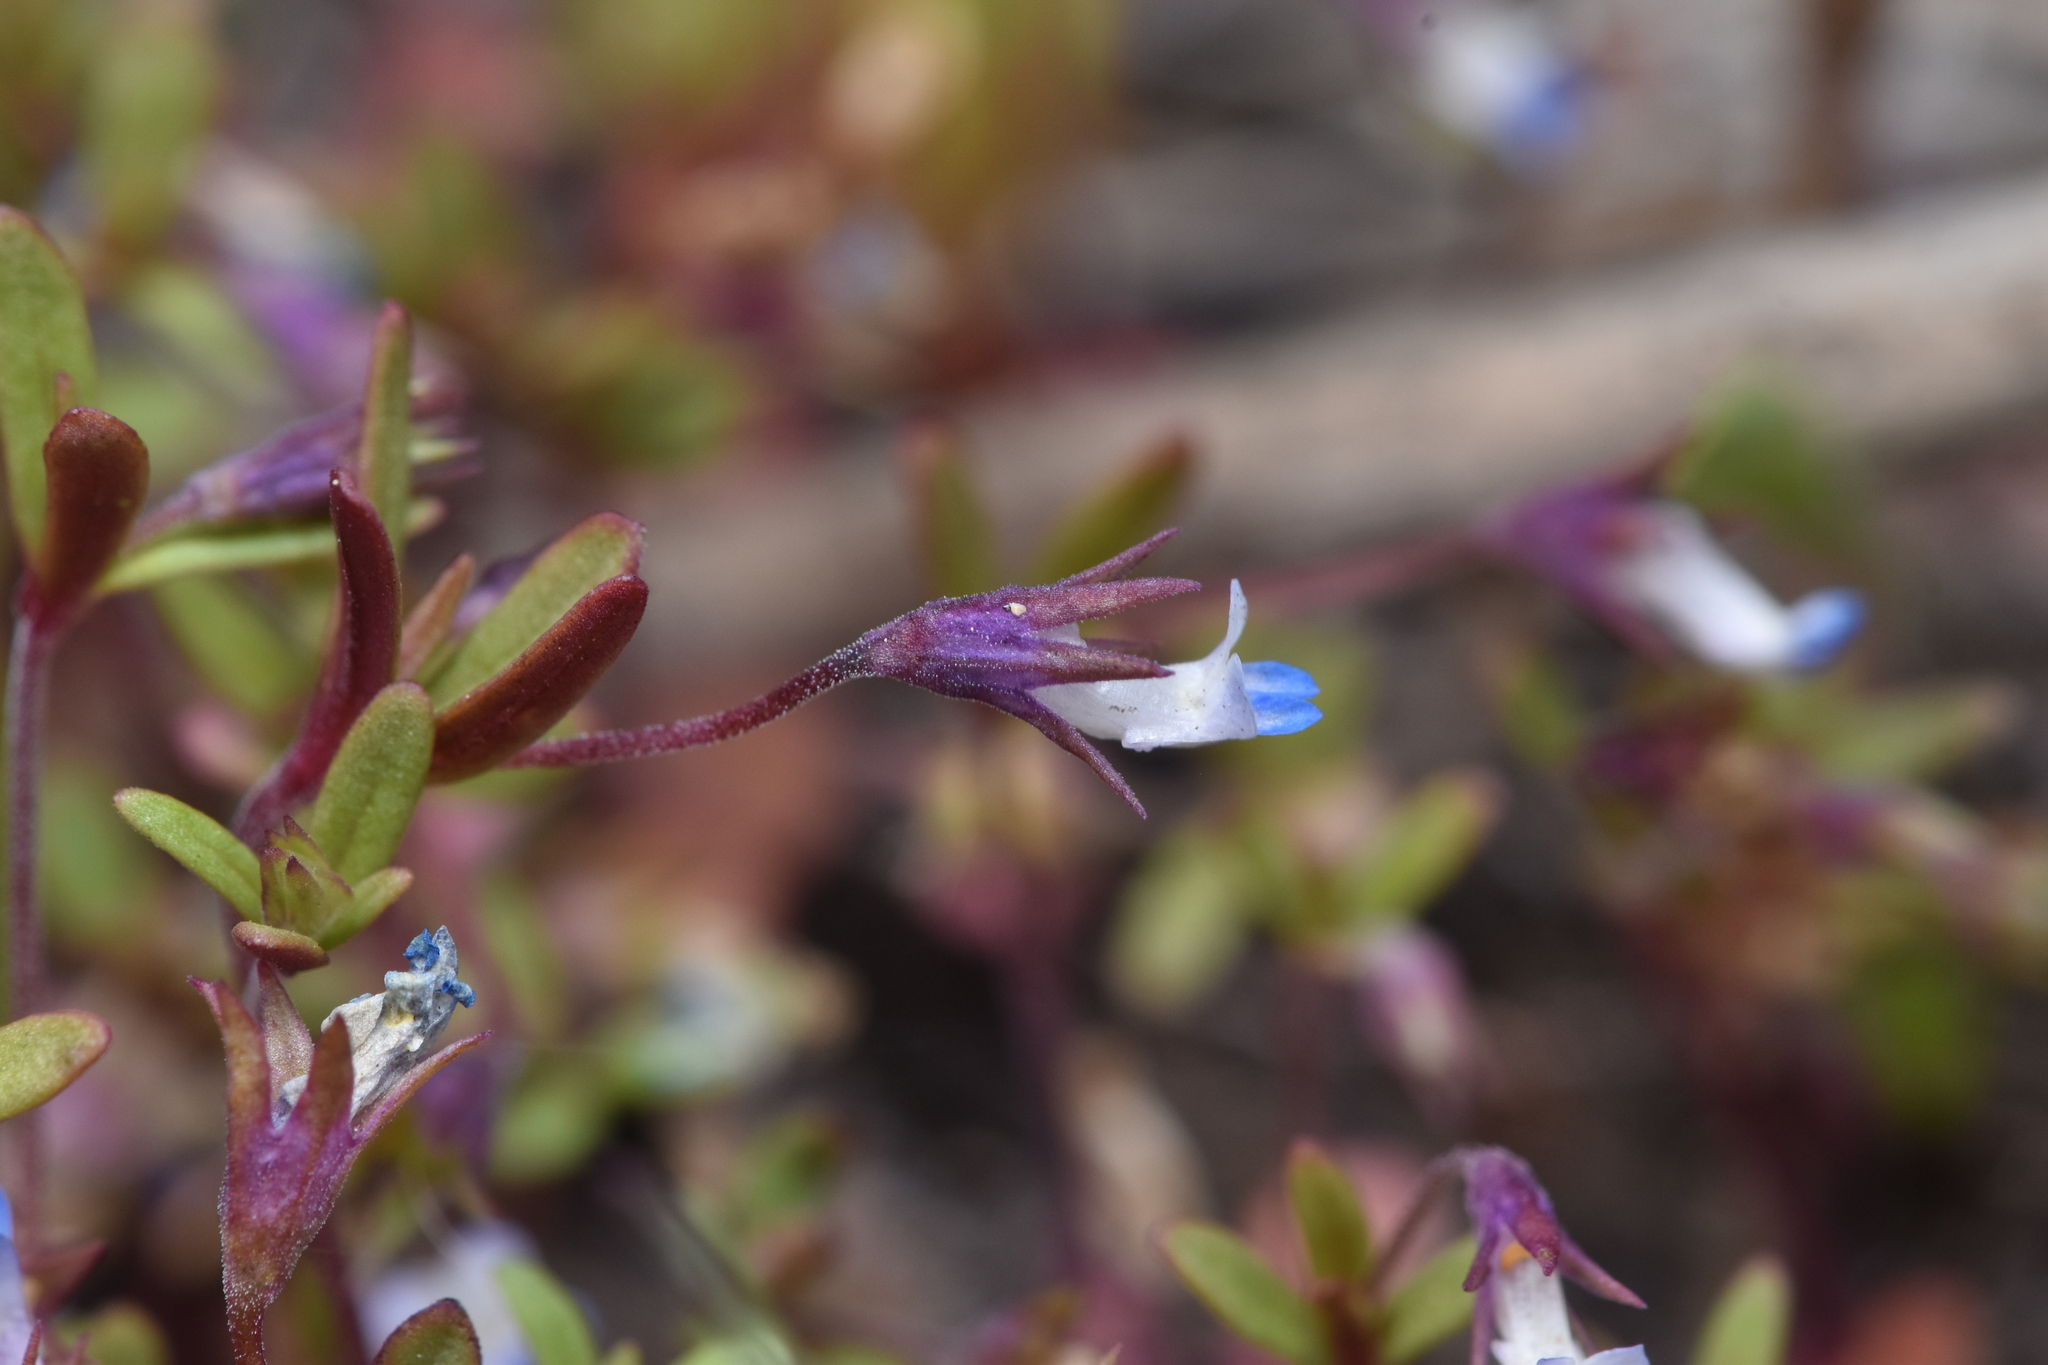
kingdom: Plantae
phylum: Tracheophyta
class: Magnoliopsida
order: Lamiales
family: Plantaginaceae
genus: Collinsia
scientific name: Collinsia parviflora
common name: Blue-lips
